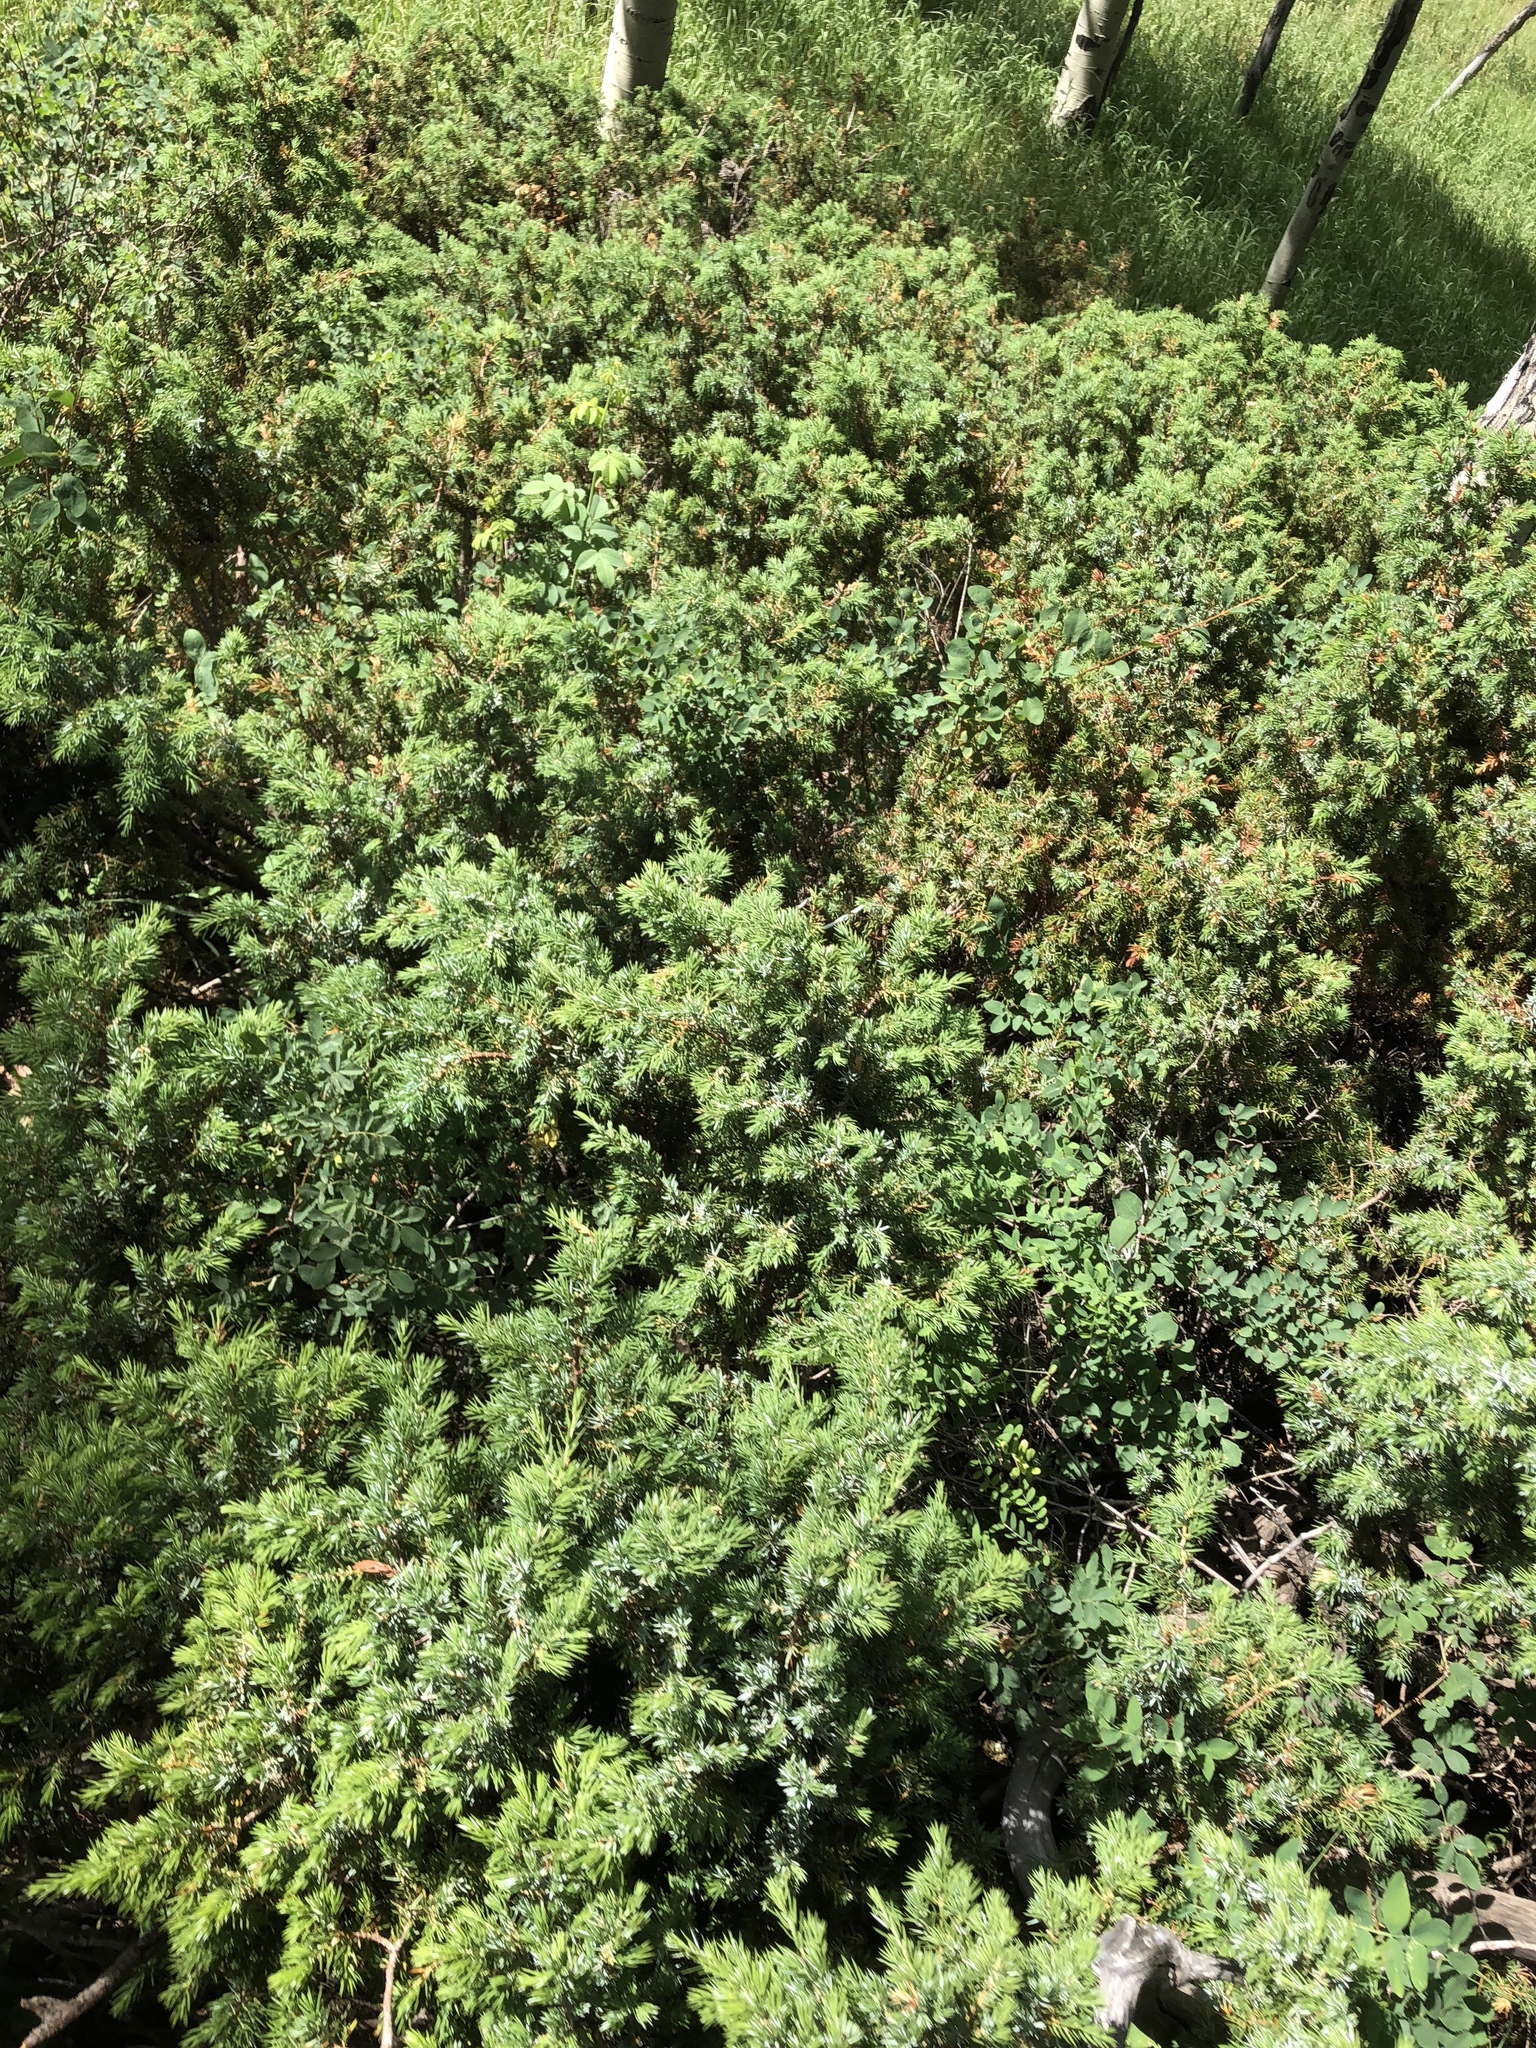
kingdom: Plantae
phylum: Tracheophyta
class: Pinopsida
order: Pinales
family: Cupressaceae
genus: Juniperus
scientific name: Juniperus communis
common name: Common juniper
